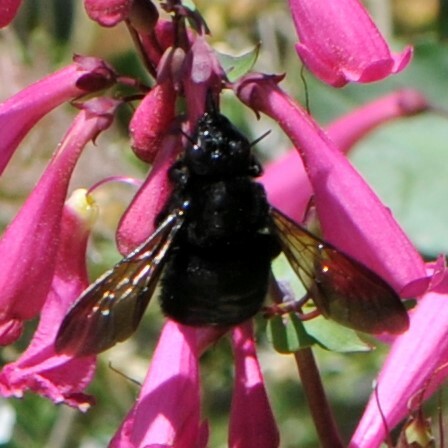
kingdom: Animalia
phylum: Arthropoda
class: Insecta
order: Hymenoptera
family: Apidae
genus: Xylocopa
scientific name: Xylocopa sonorina
